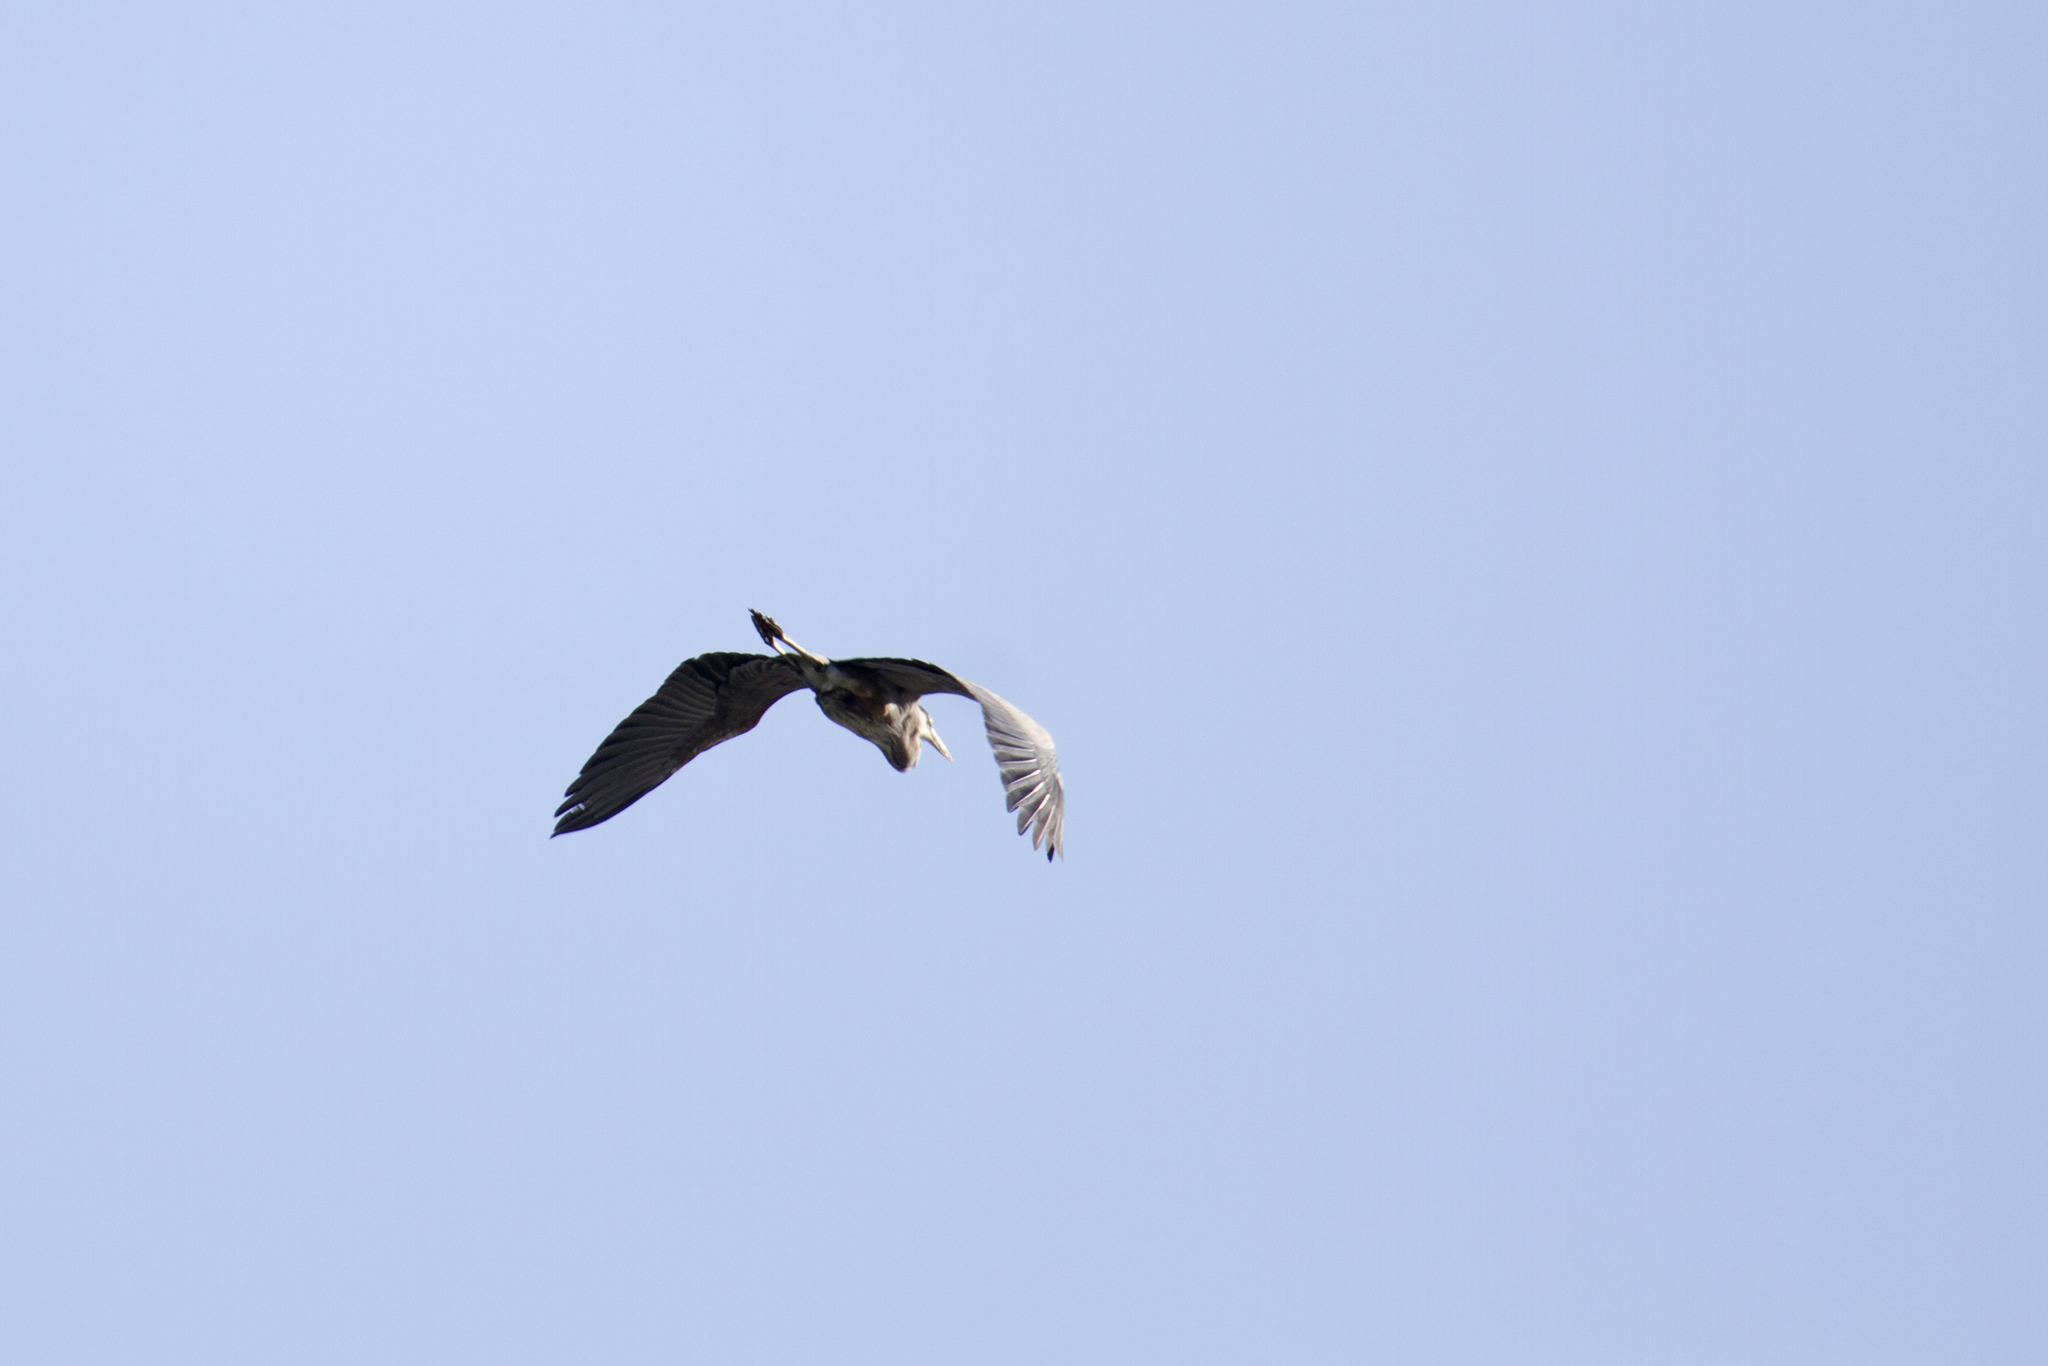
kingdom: Animalia
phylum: Chordata
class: Aves
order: Pelecaniformes
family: Ardeidae
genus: Ardea
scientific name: Ardea herodias
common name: Great blue heron
